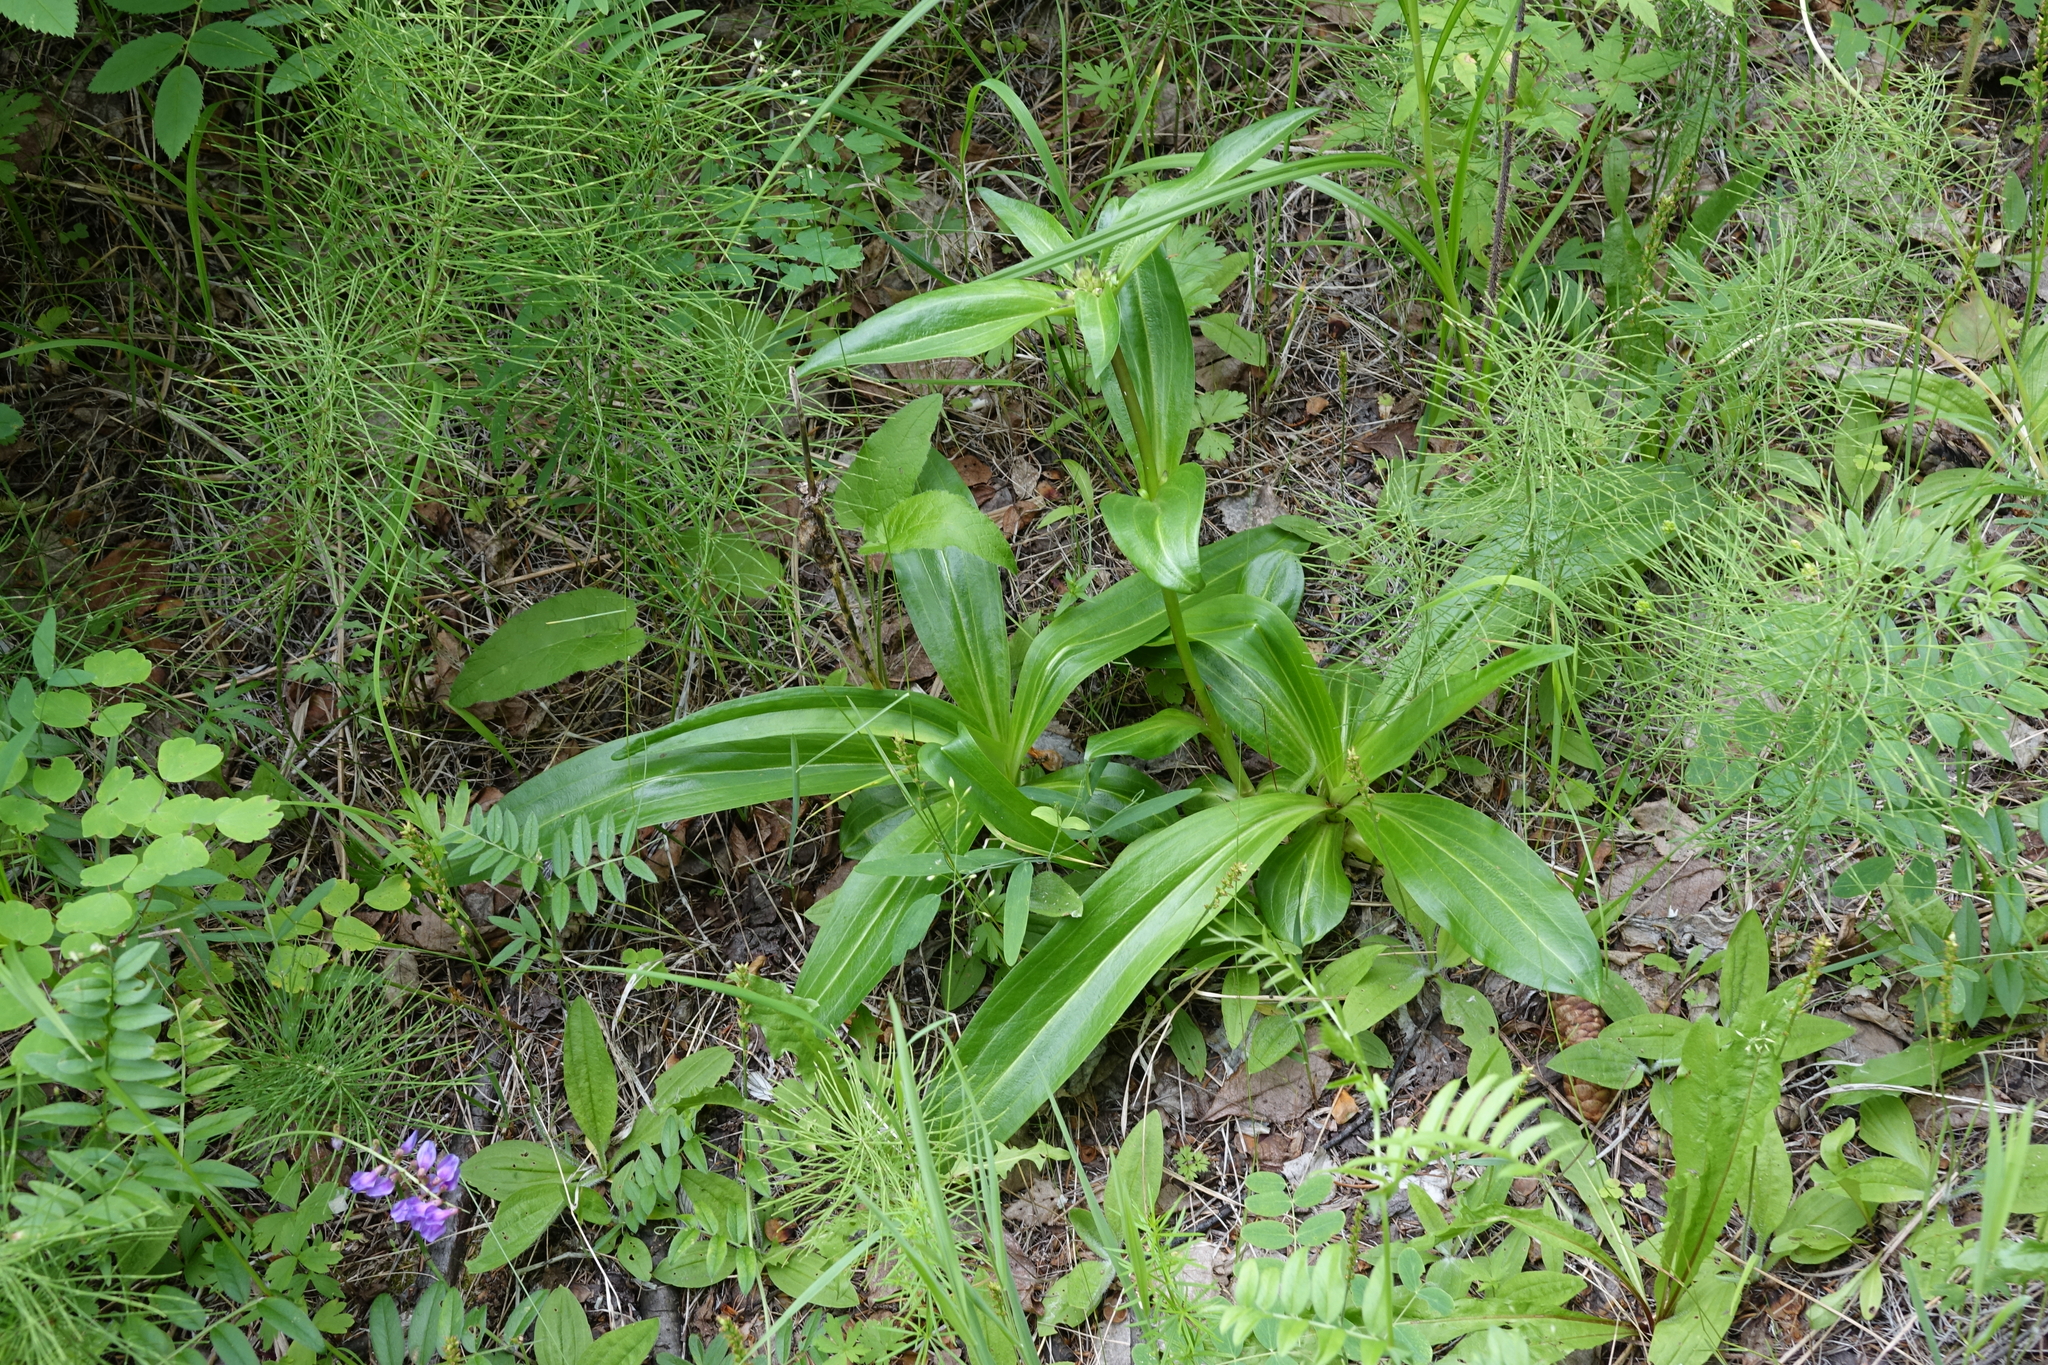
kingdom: Plantae
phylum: Tracheophyta
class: Magnoliopsida
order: Gentianales
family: Gentianaceae
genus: Gentiana
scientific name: Gentiana macrophylla
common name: Large-leaf gentian
